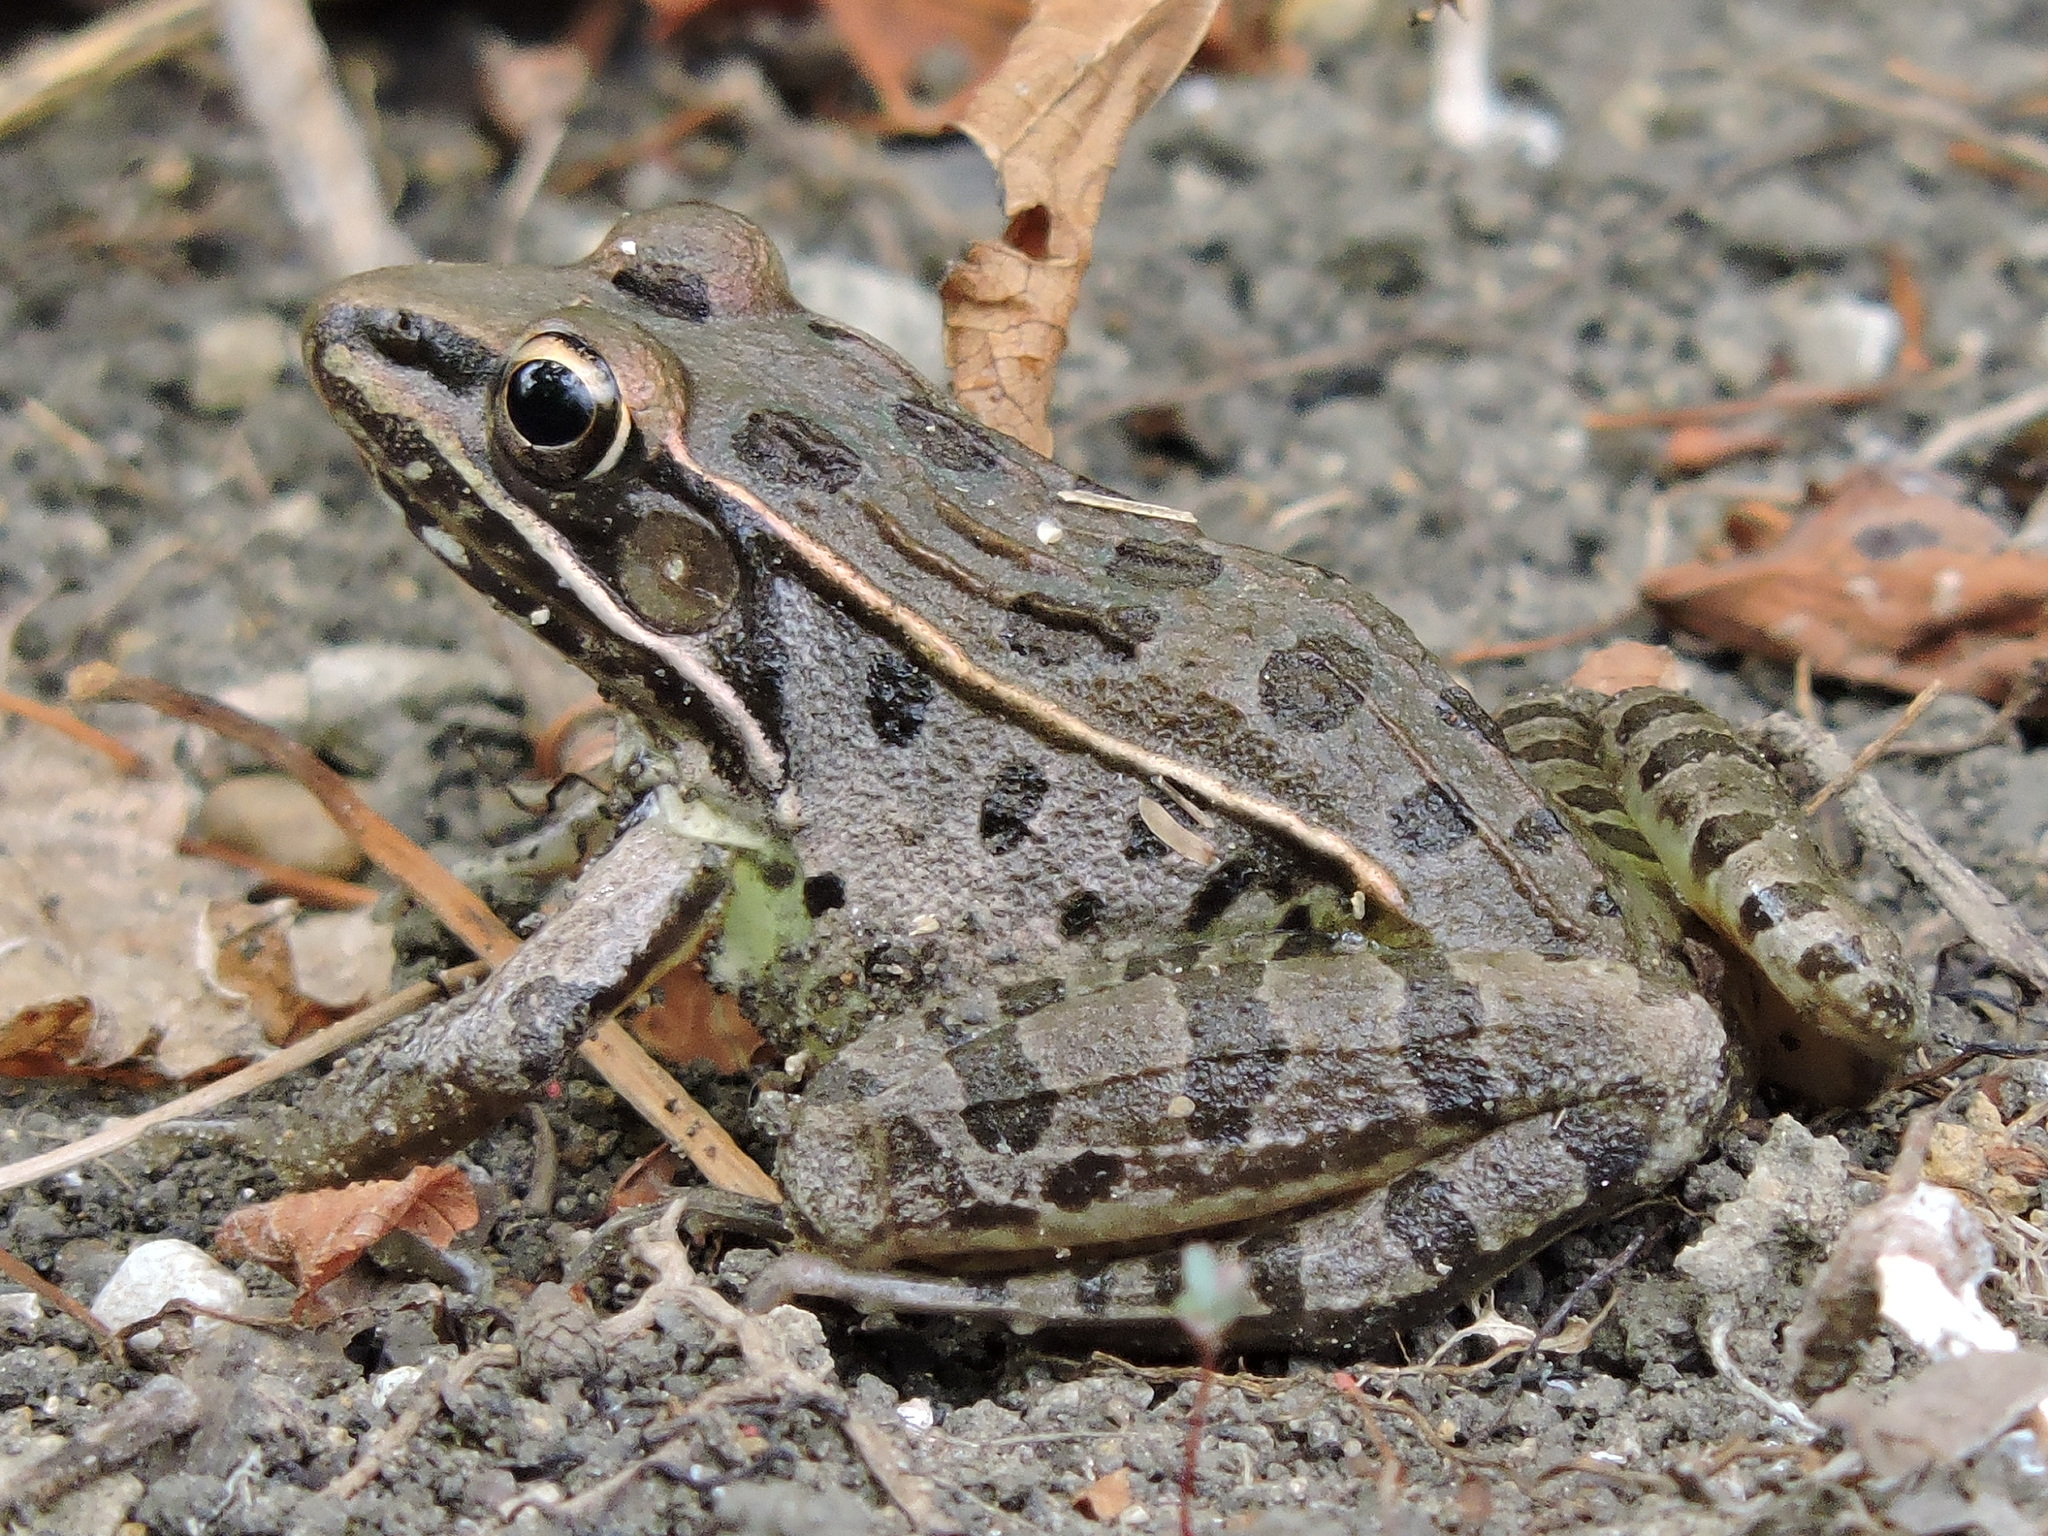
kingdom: Animalia
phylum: Chordata
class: Amphibia
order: Anura
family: Ranidae
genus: Lithobates
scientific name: Lithobates sphenocephalus
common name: Southern leopard frog
